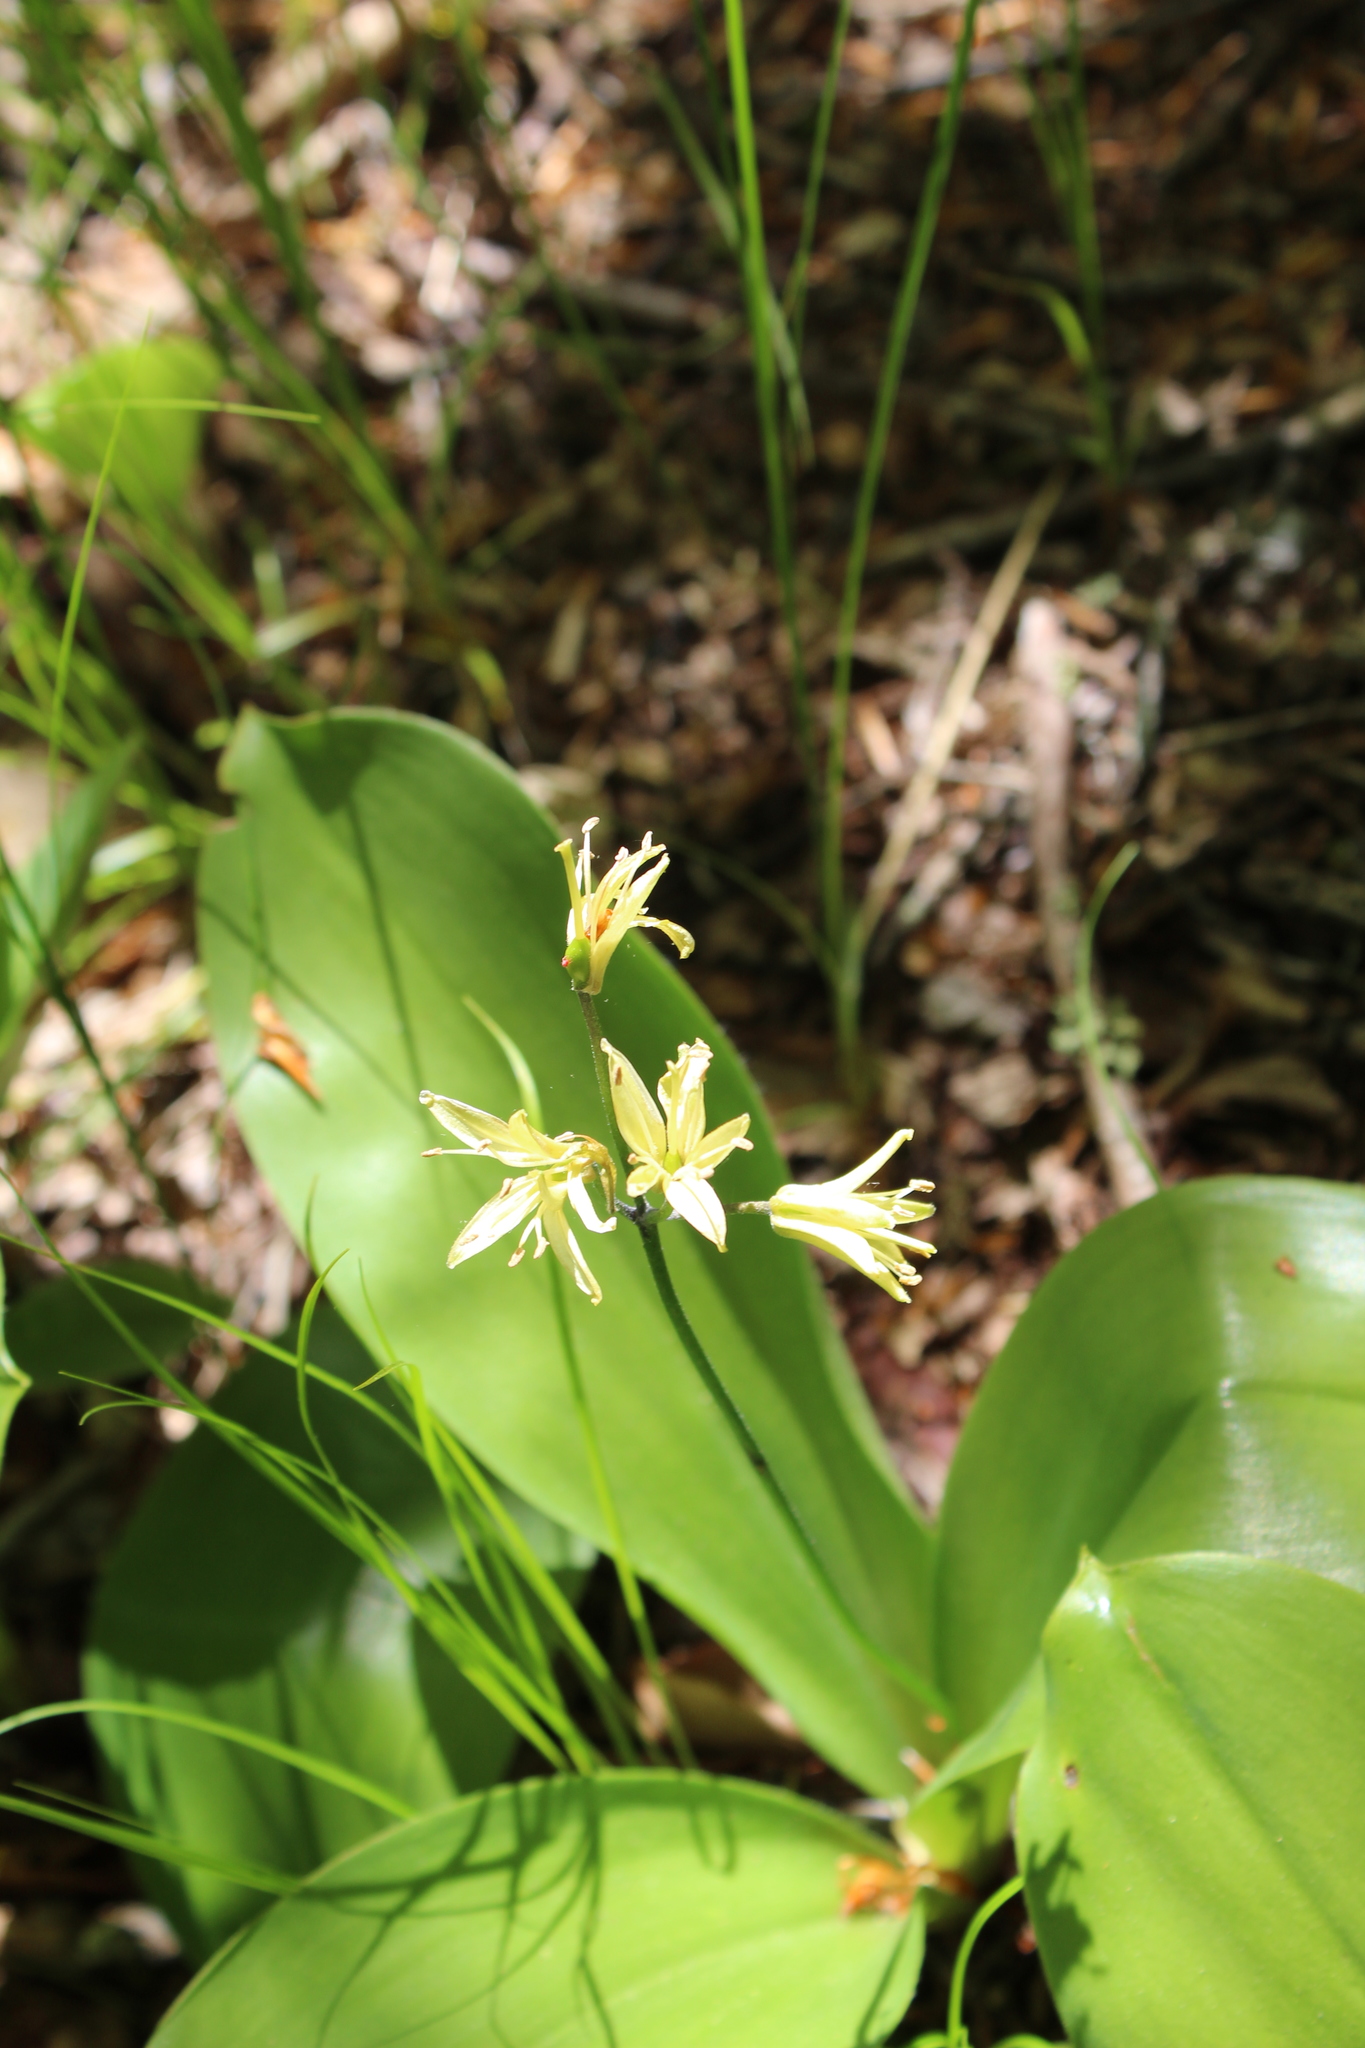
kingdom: Plantae
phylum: Tracheophyta
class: Liliopsida
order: Liliales
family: Liliaceae
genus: Clintonia
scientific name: Clintonia borealis
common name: Yellow clintonia
